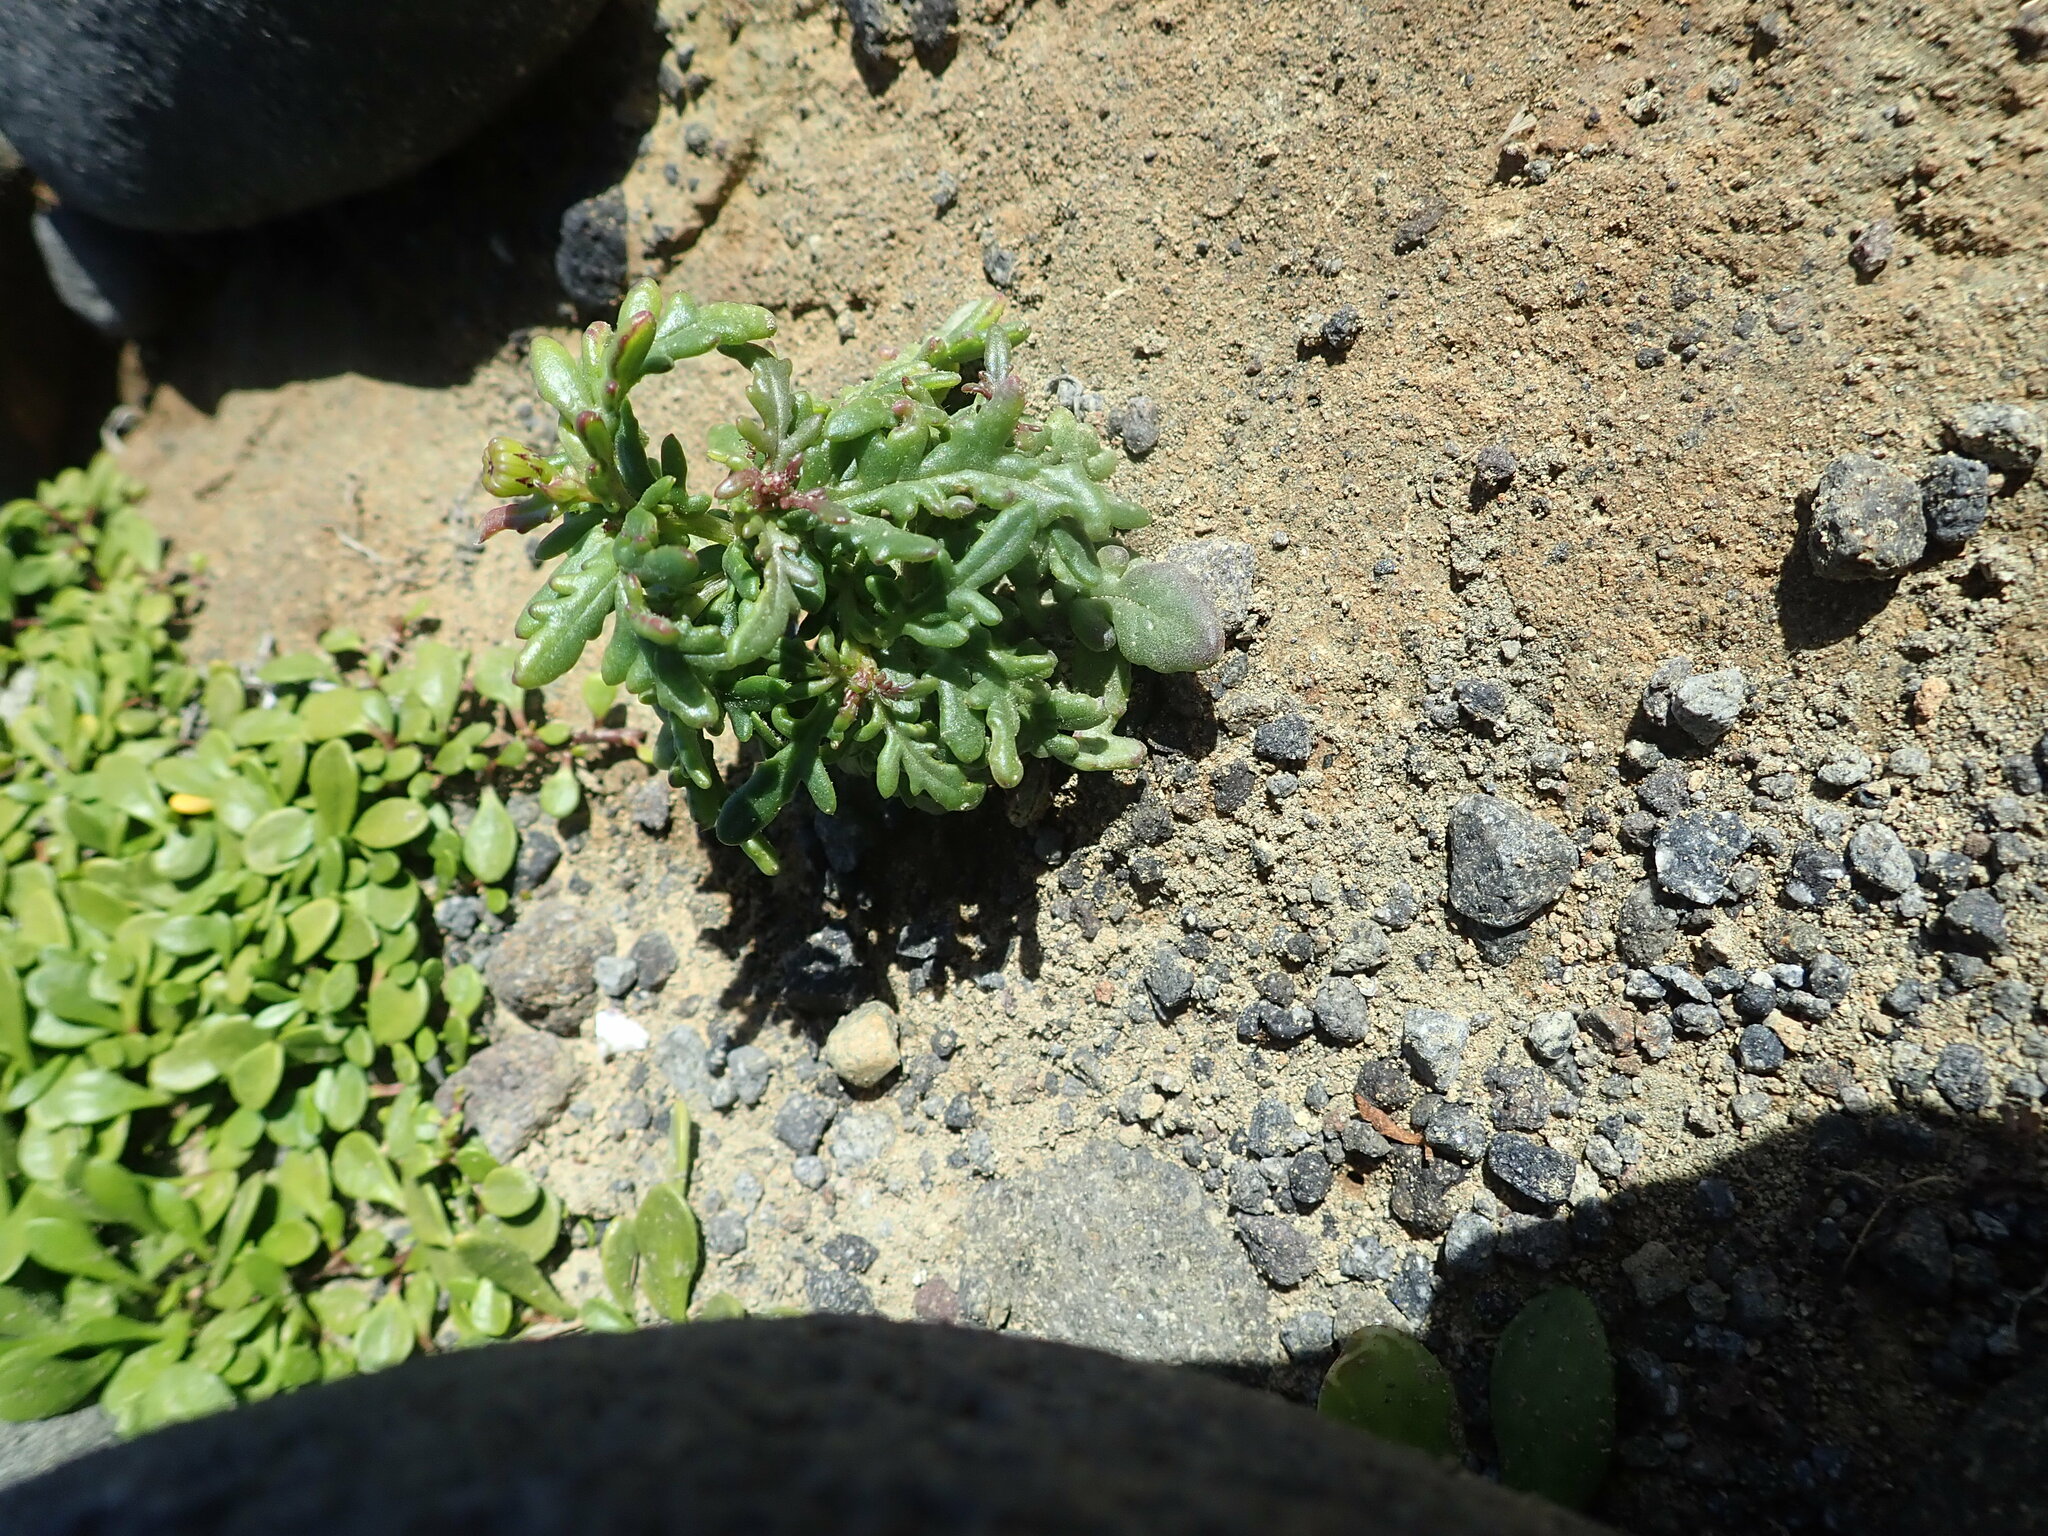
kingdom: Plantae
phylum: Tracheophyta
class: Magnoliopsida
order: Asterales
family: Asteraceae
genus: Senecio
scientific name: Senecio lautus
